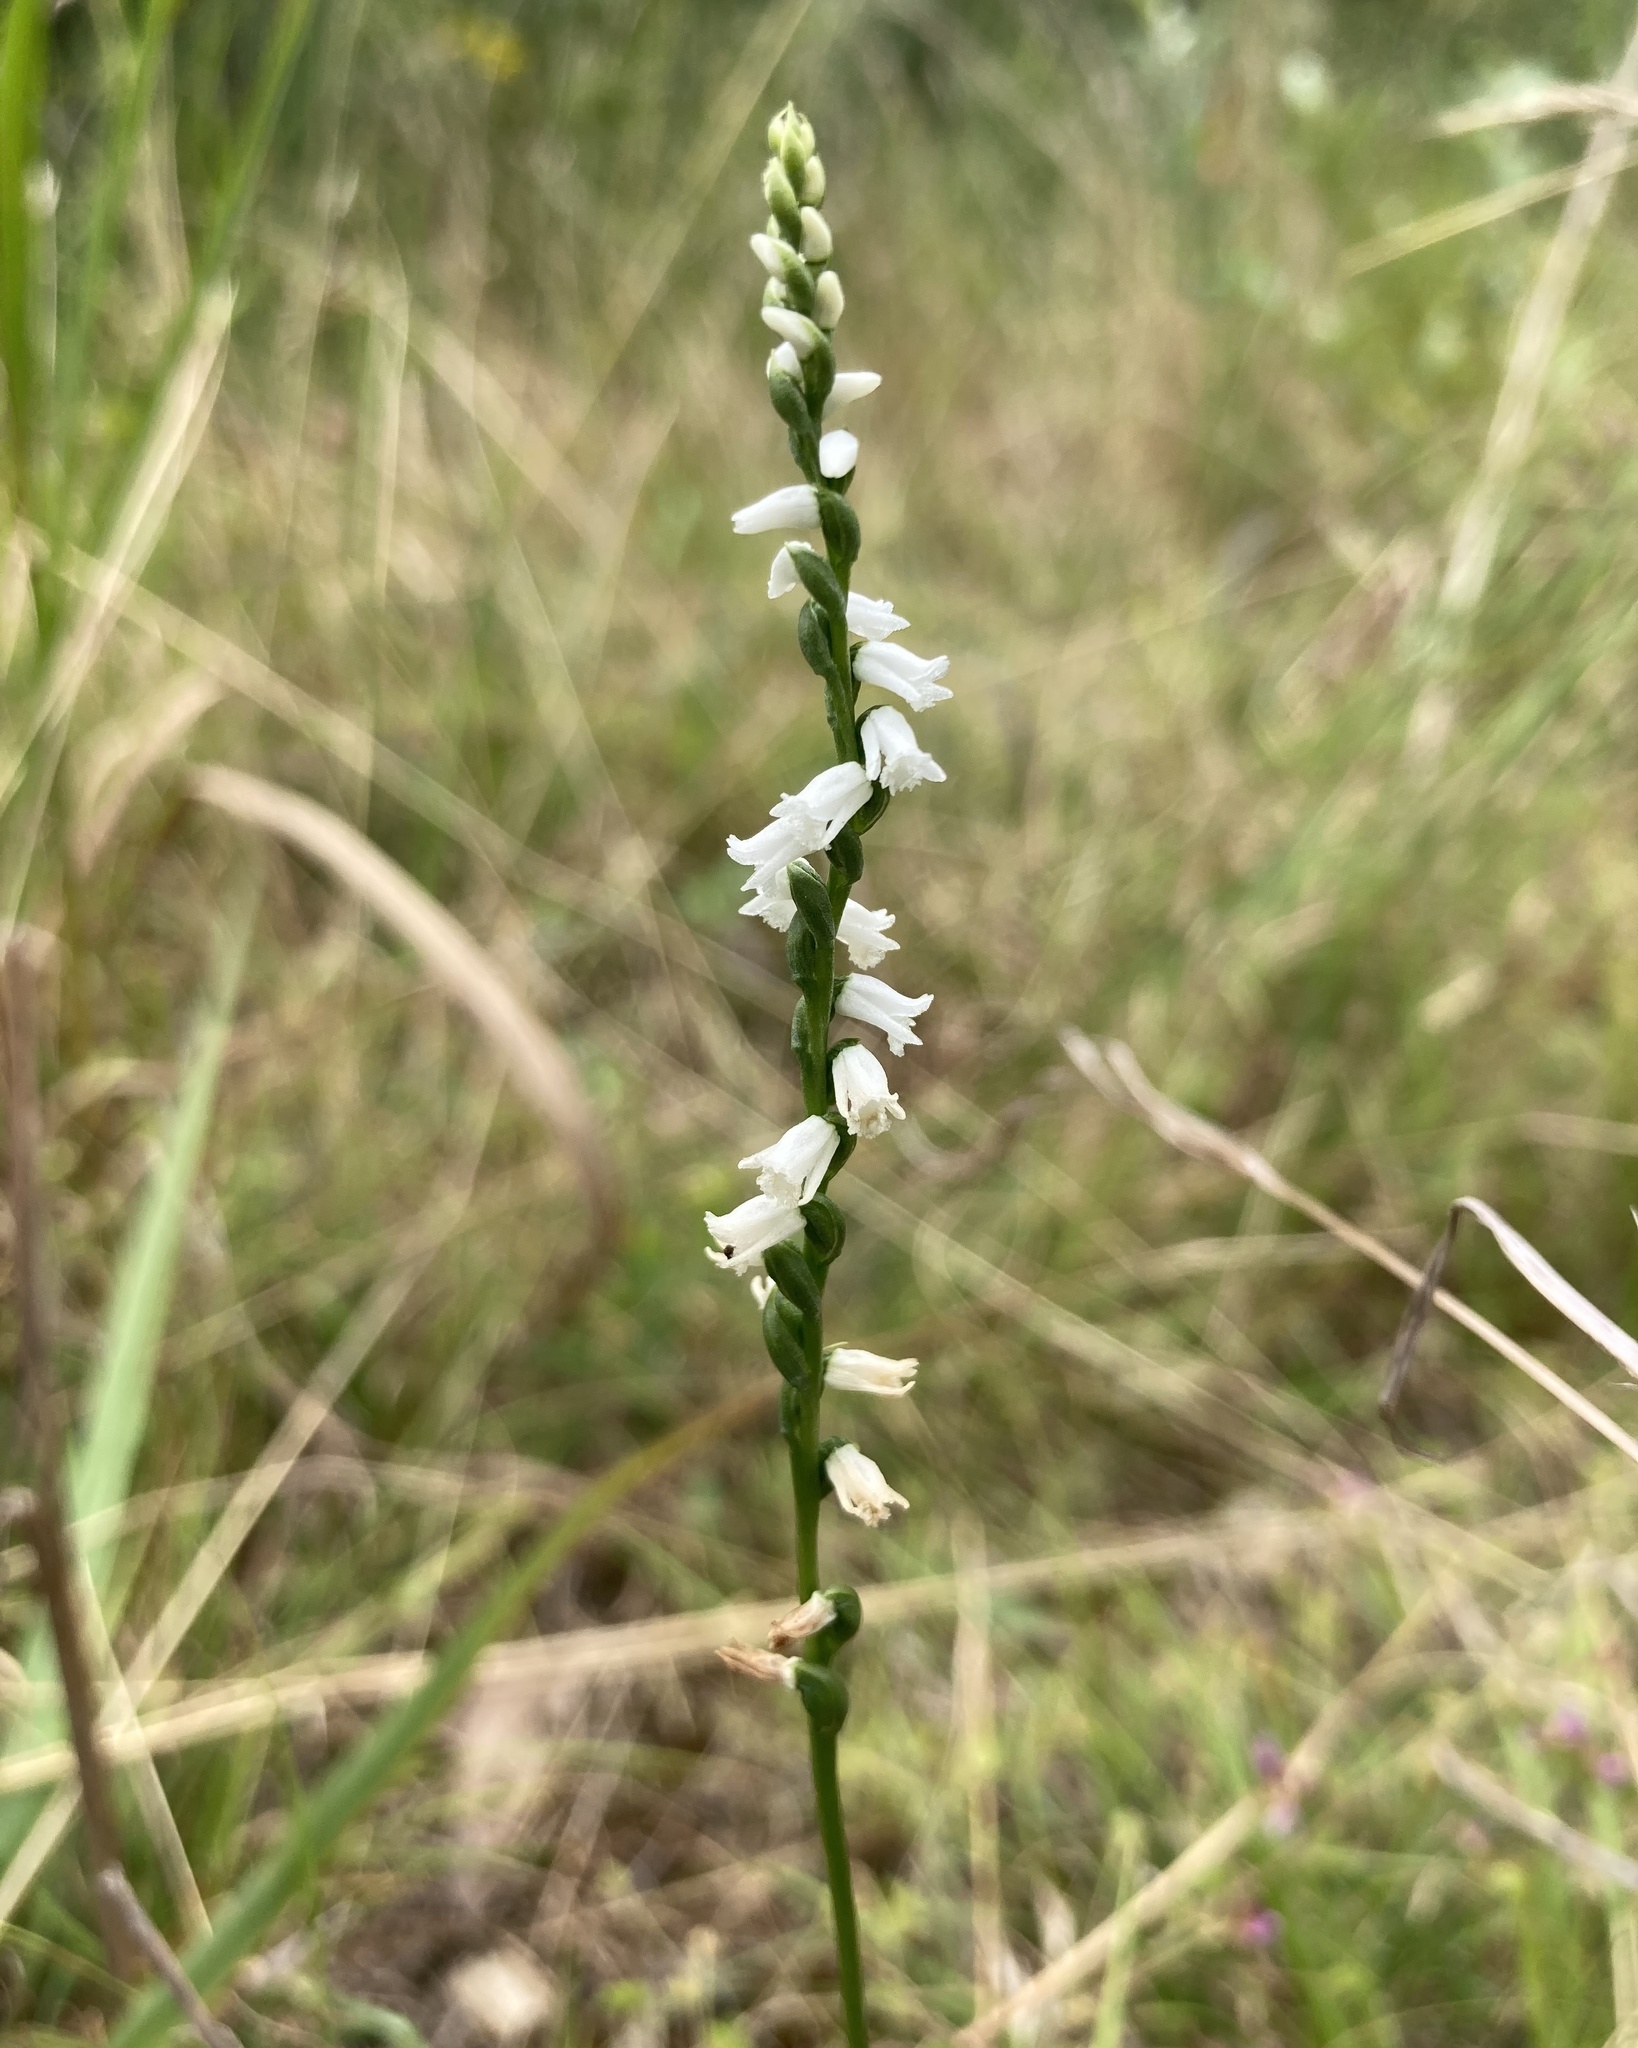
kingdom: Plantae
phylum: Tracheophyta
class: Liliopsida
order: Asparagales
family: Orchidaceae
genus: Spiranthes
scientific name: Spiranthes tuberosa
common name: Little ladies'-tresses
